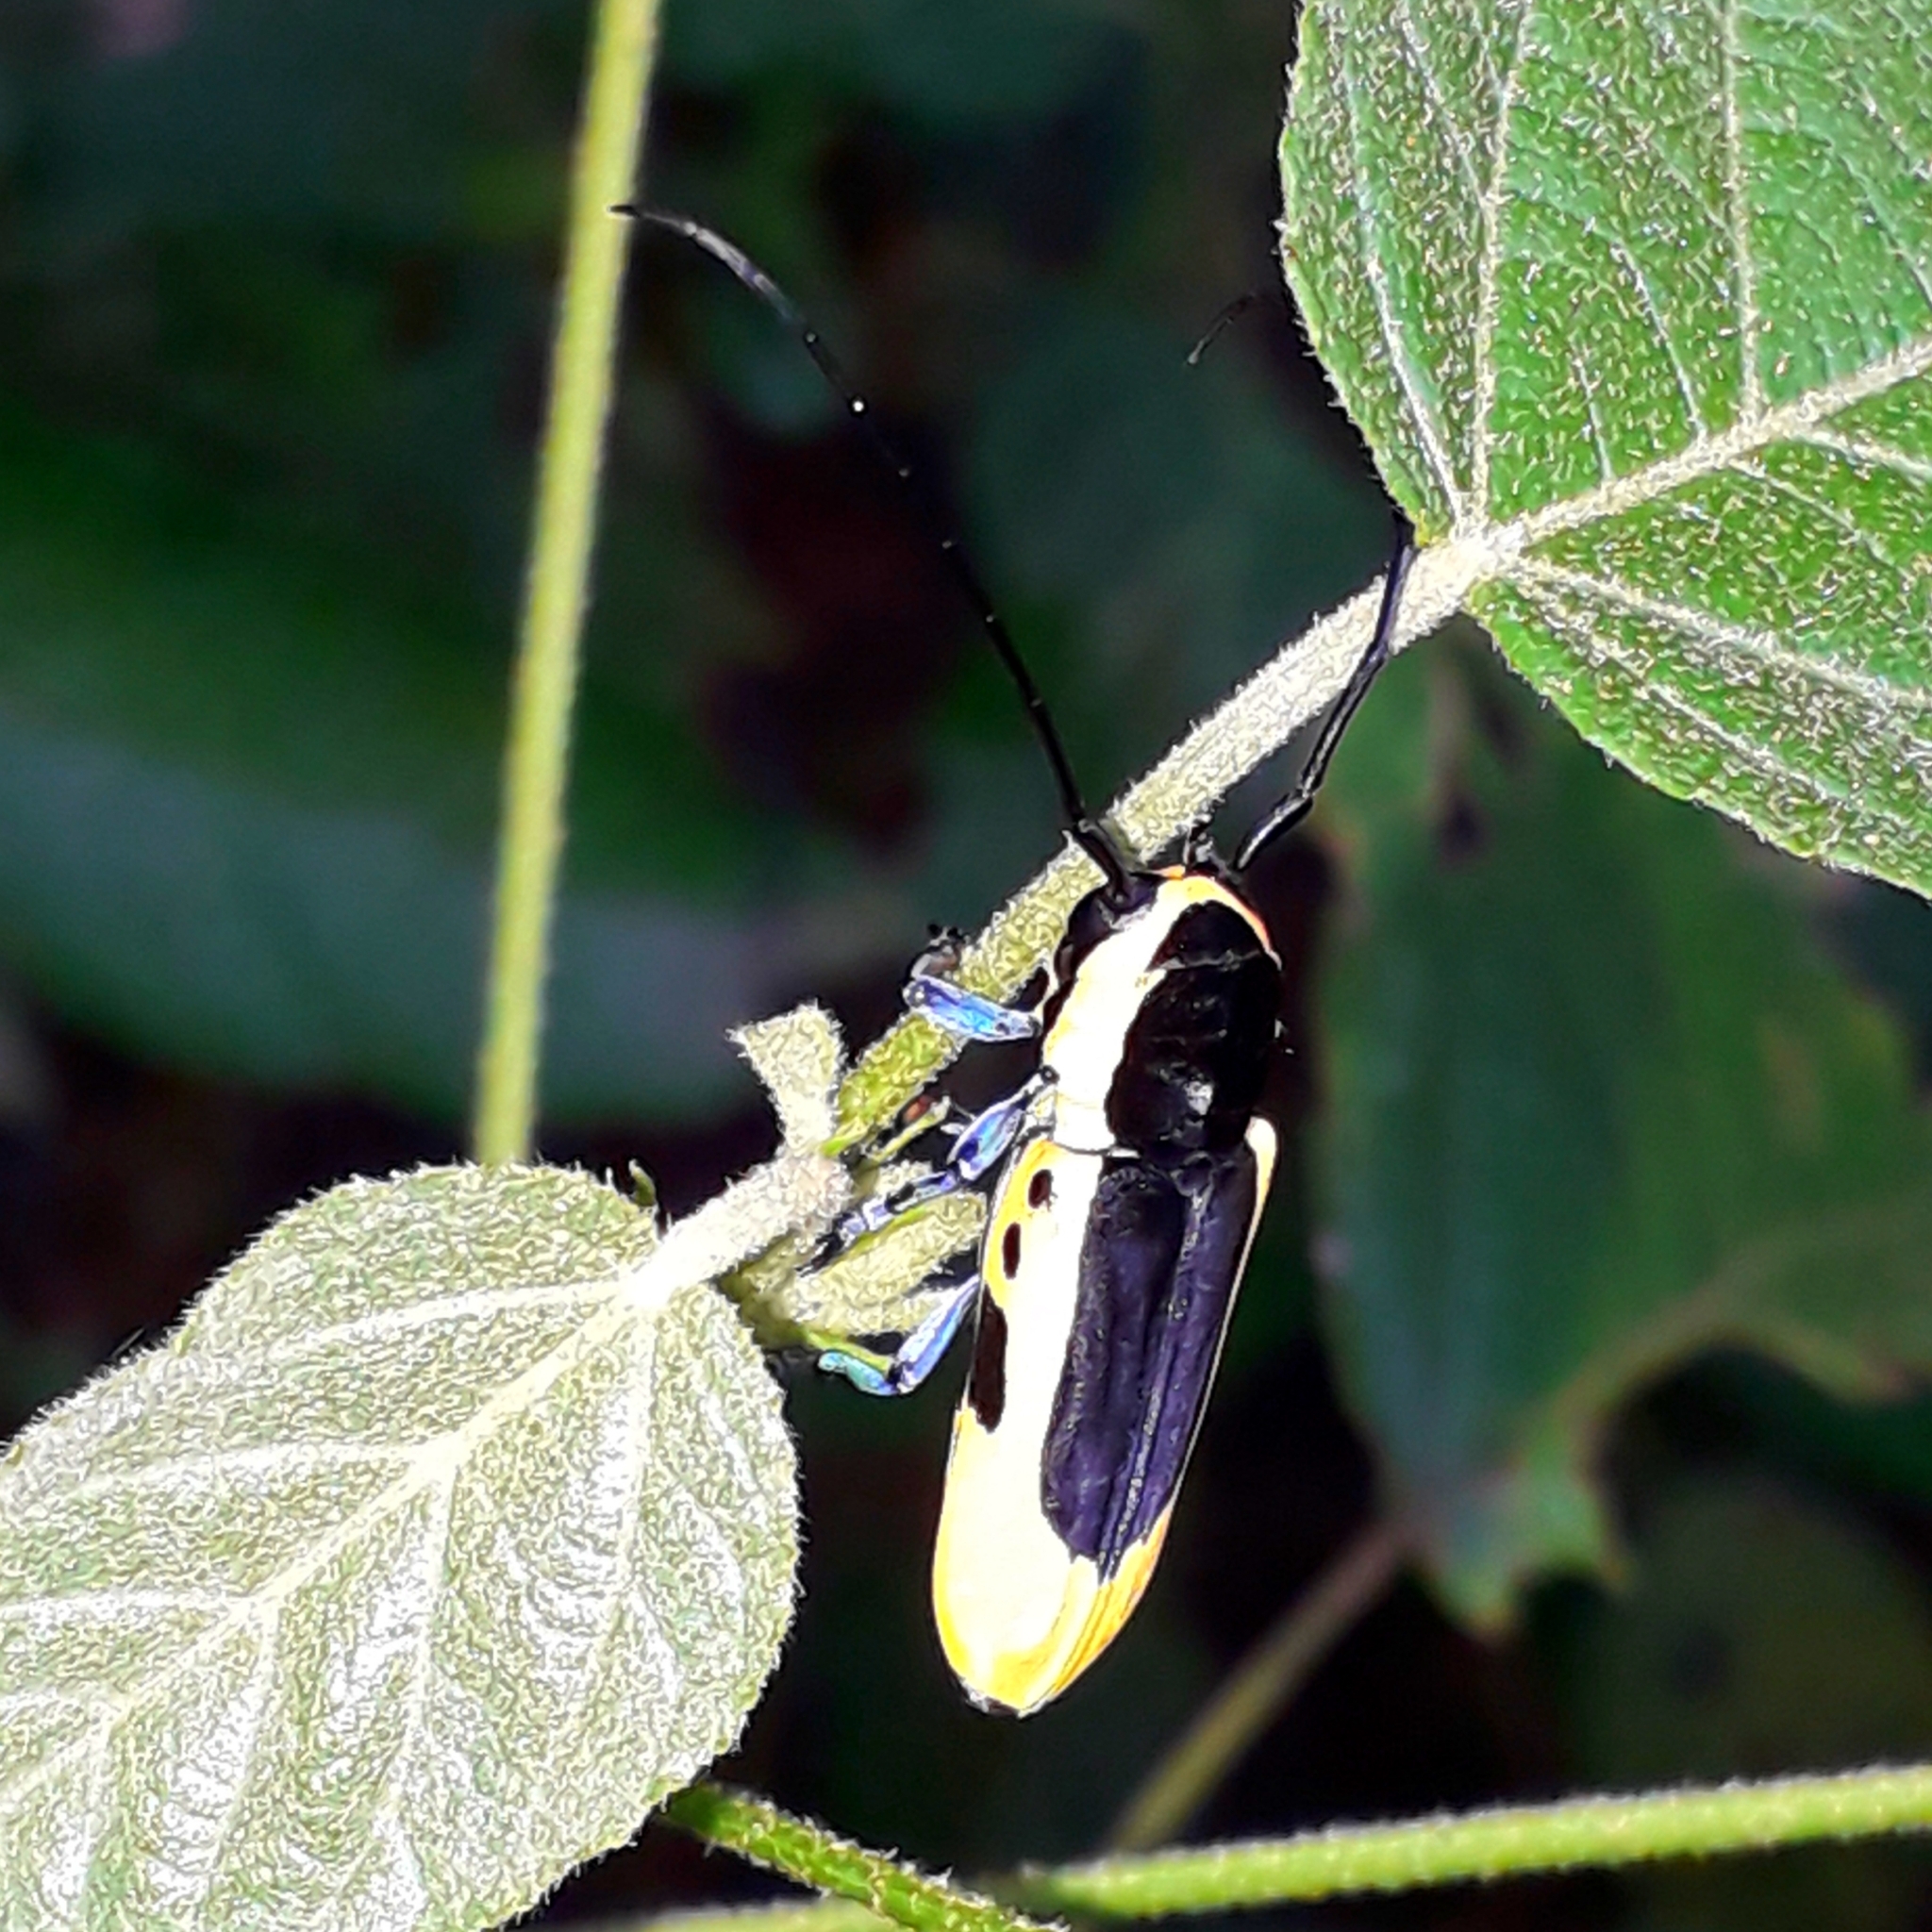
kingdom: Animalia
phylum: Arthropoda
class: Insecta
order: Coleoptera
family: Cerambycidae
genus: Tragocephala
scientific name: Tragocephala nobilis
